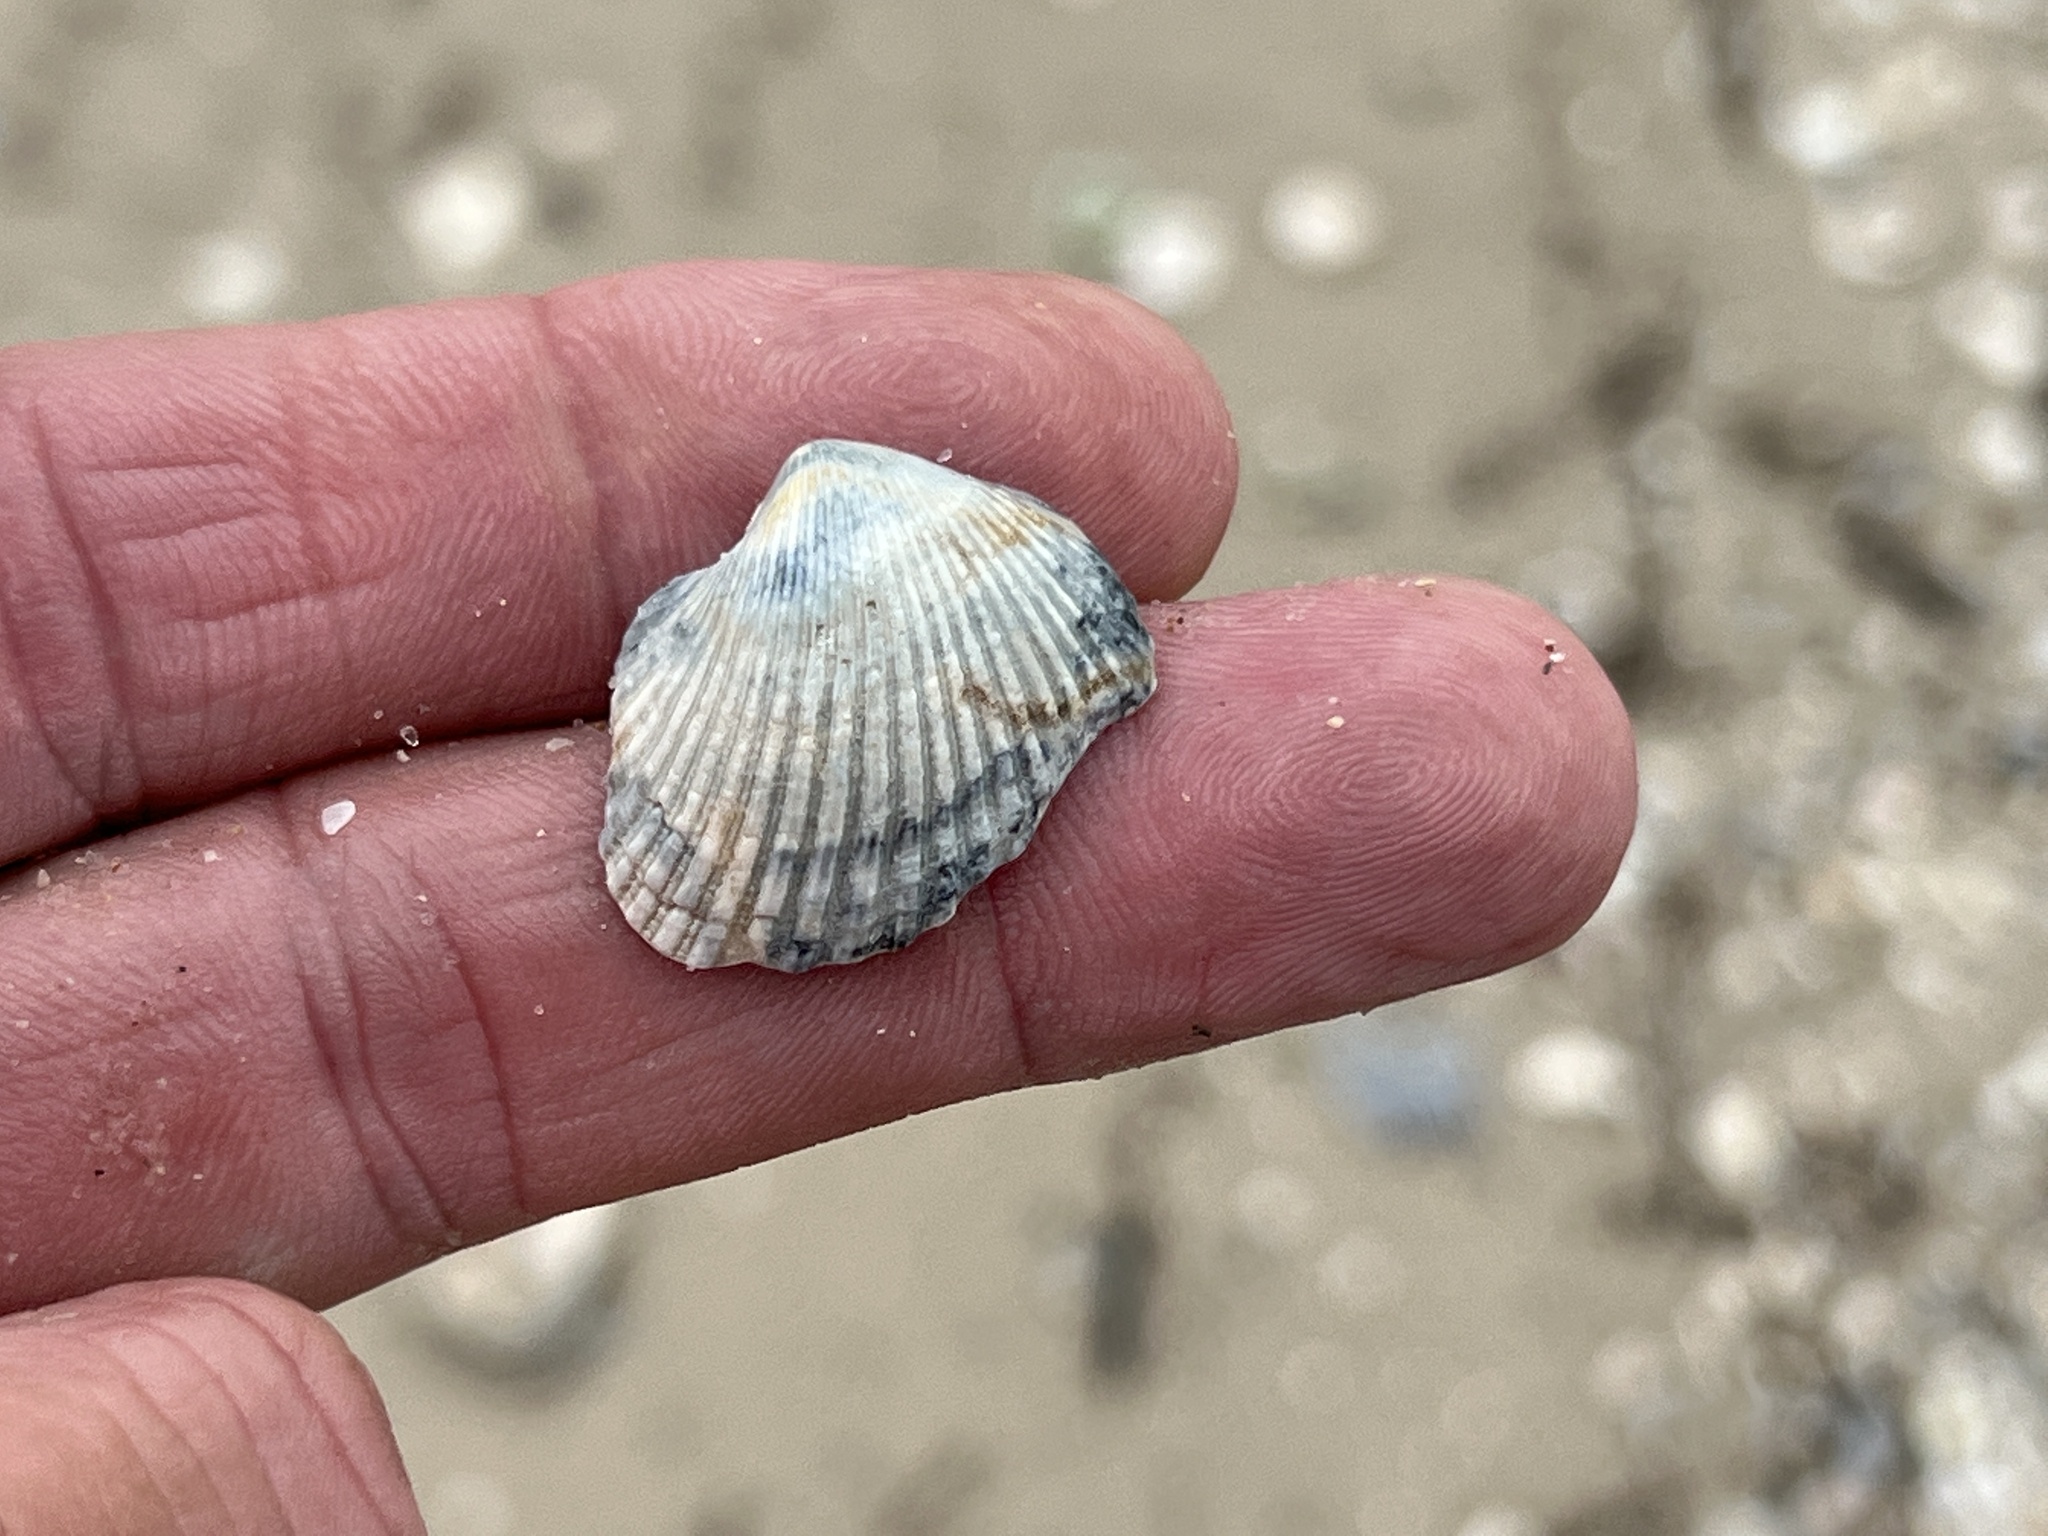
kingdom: Animalia
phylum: Mollusca
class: Bivalvia
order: Arcida
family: Noetiidae
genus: Noetia
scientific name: Noetia ponderosa
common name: Ponderous ark
